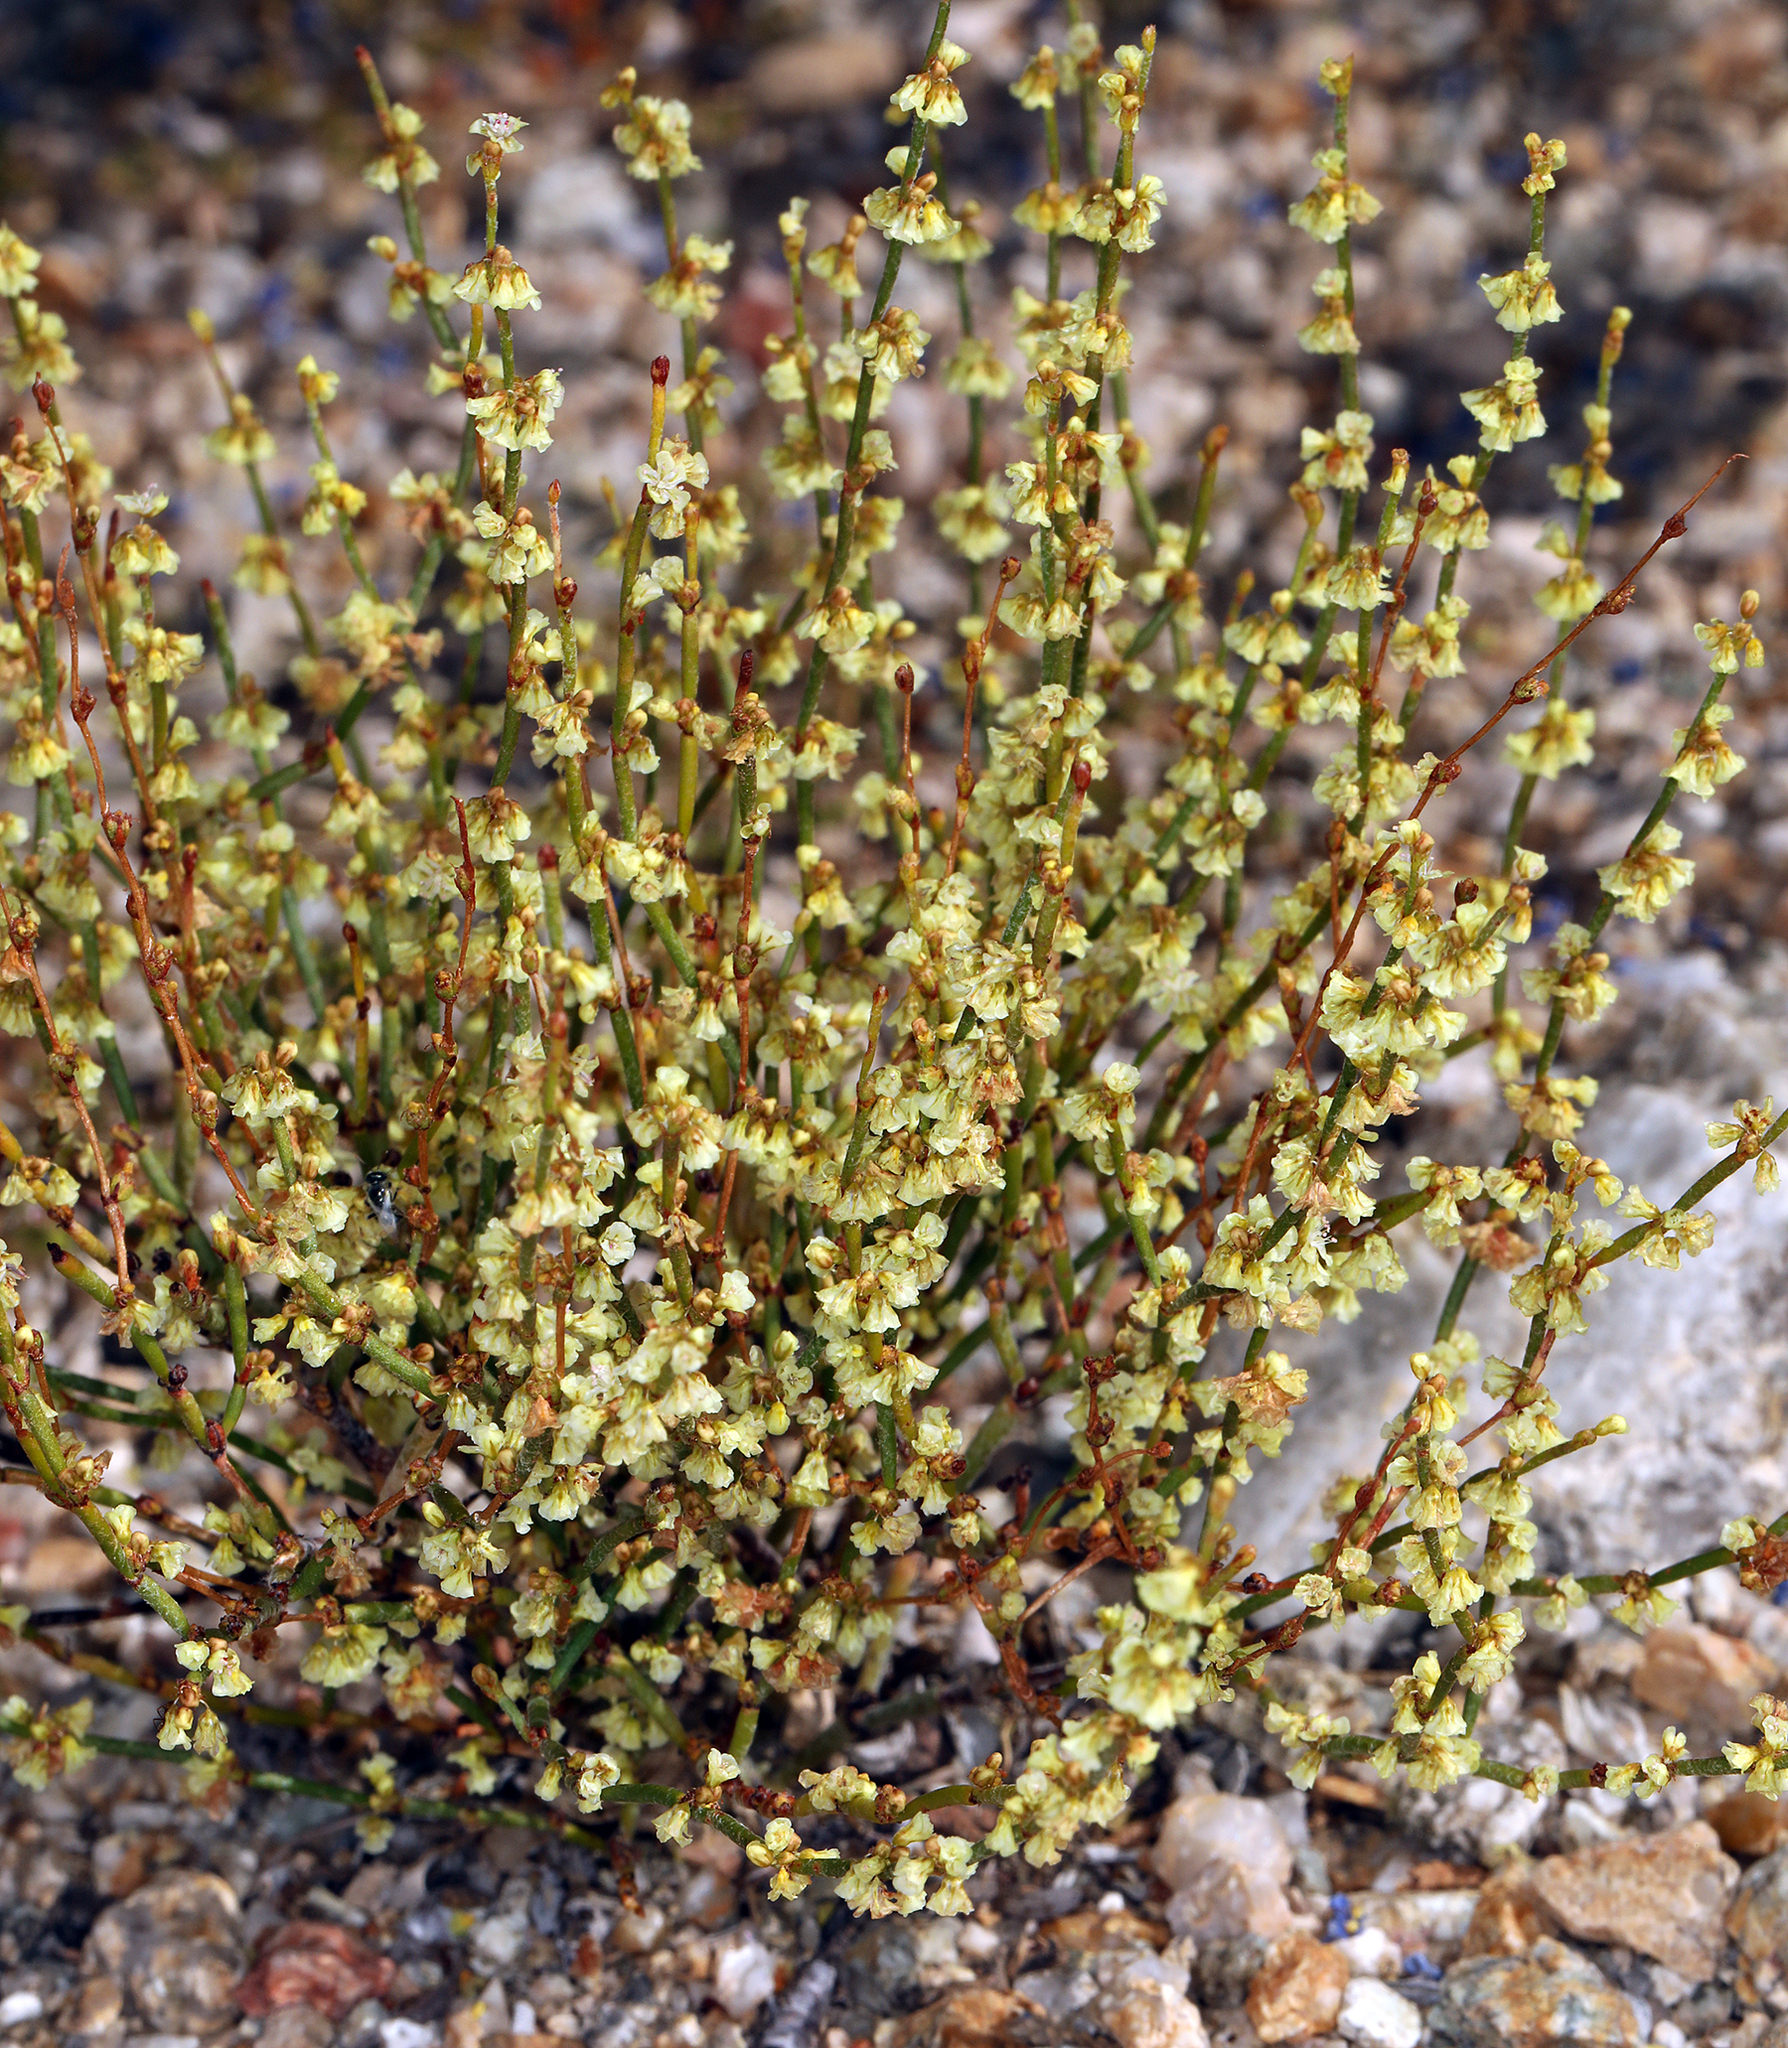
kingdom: Plantae
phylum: Tracheophyta
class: Magnoliopsida
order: Caryophyllales
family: Polygonaceae
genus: Eriogonum
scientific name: Eriogonum nidularium
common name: Bird's-nest wild buckwheat
